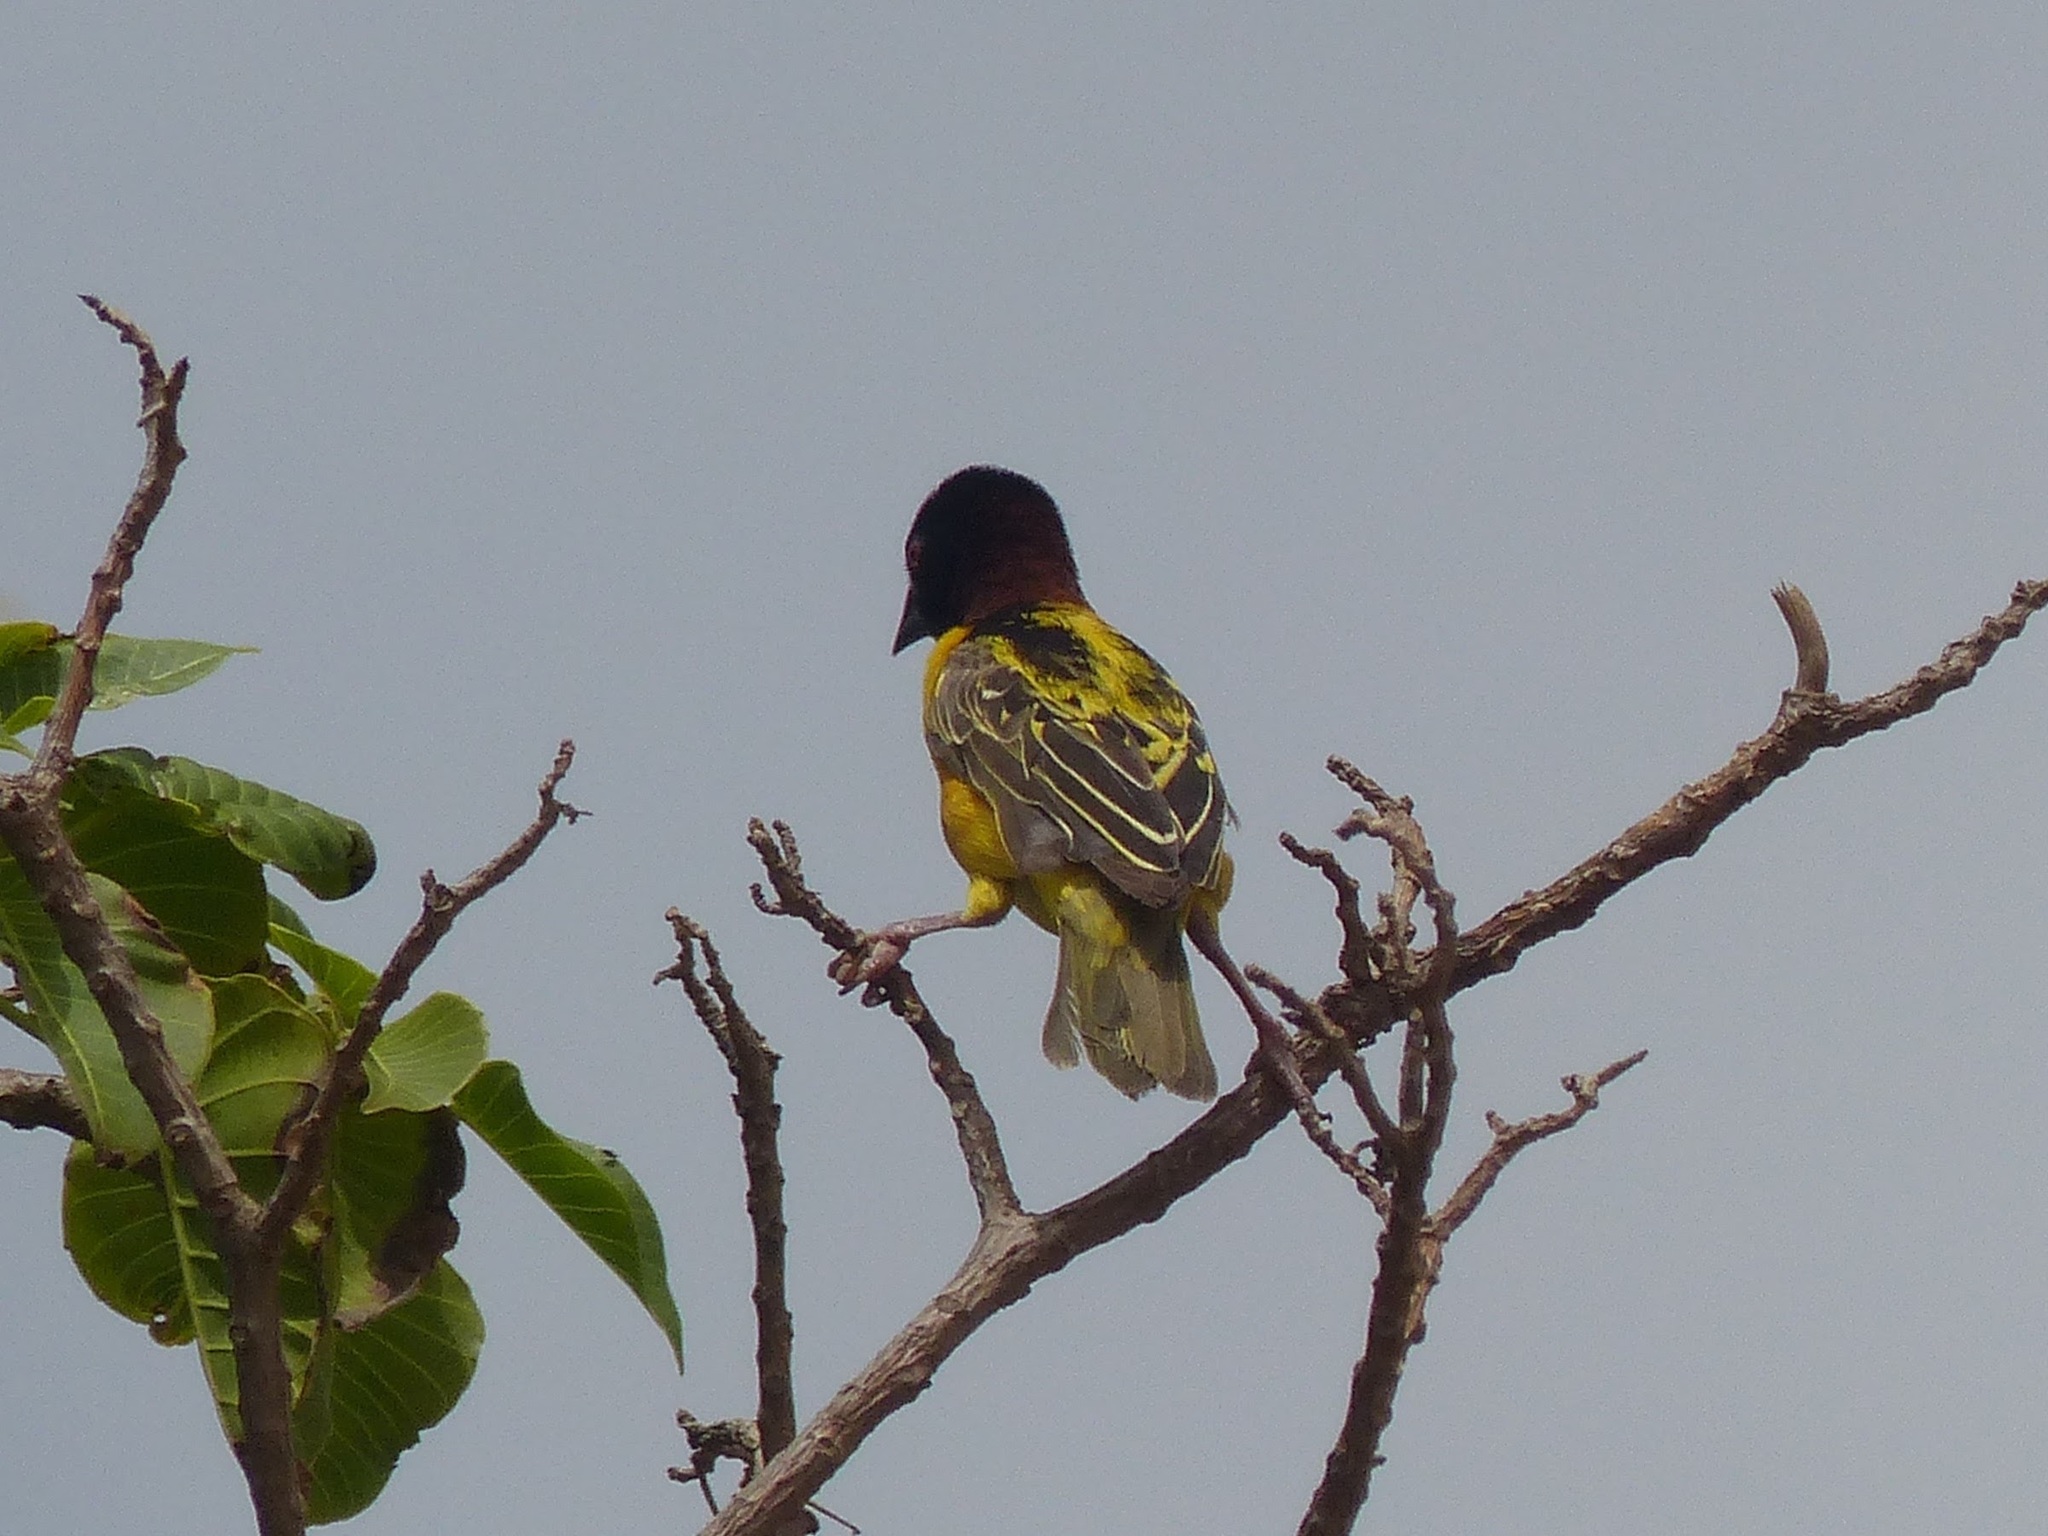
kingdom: Animalia
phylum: Chordata
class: Aves
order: Passeriformes
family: Ploceidae
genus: Ploceus
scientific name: Ploceus cucullatus
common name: Village weaver
